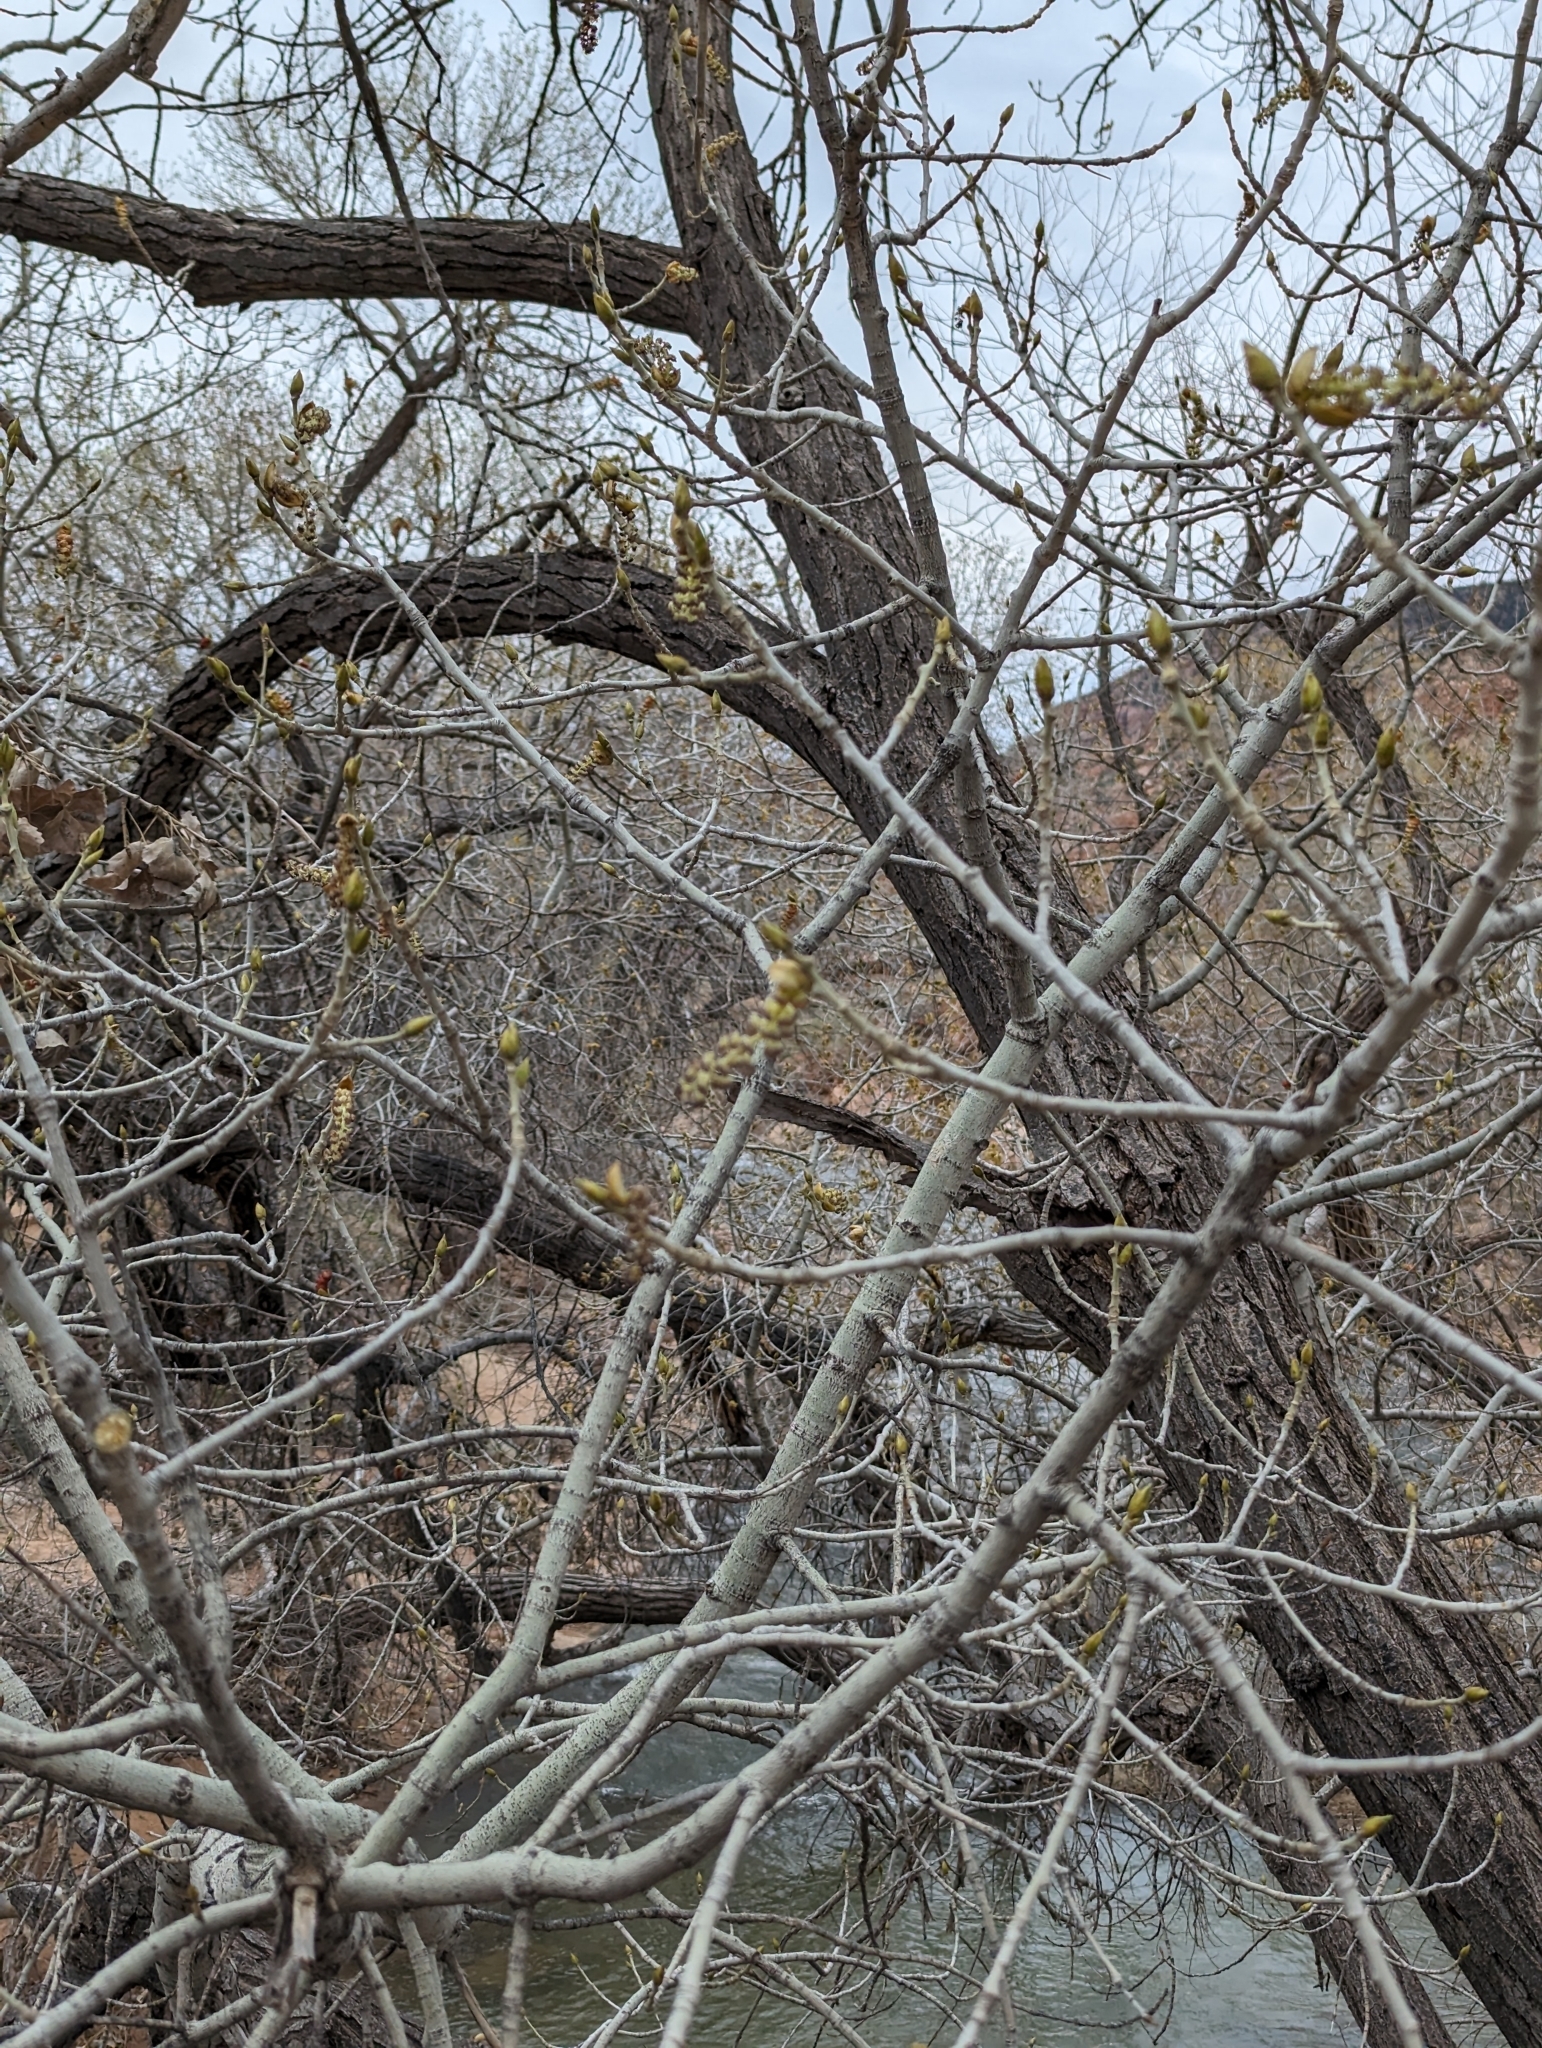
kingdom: Plantae
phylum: Tracheophyta
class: Magnoliopsida
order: Malpighiales
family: Salicaceae
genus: Populus
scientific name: Populus fremontii
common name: Fremont's cottonwood
